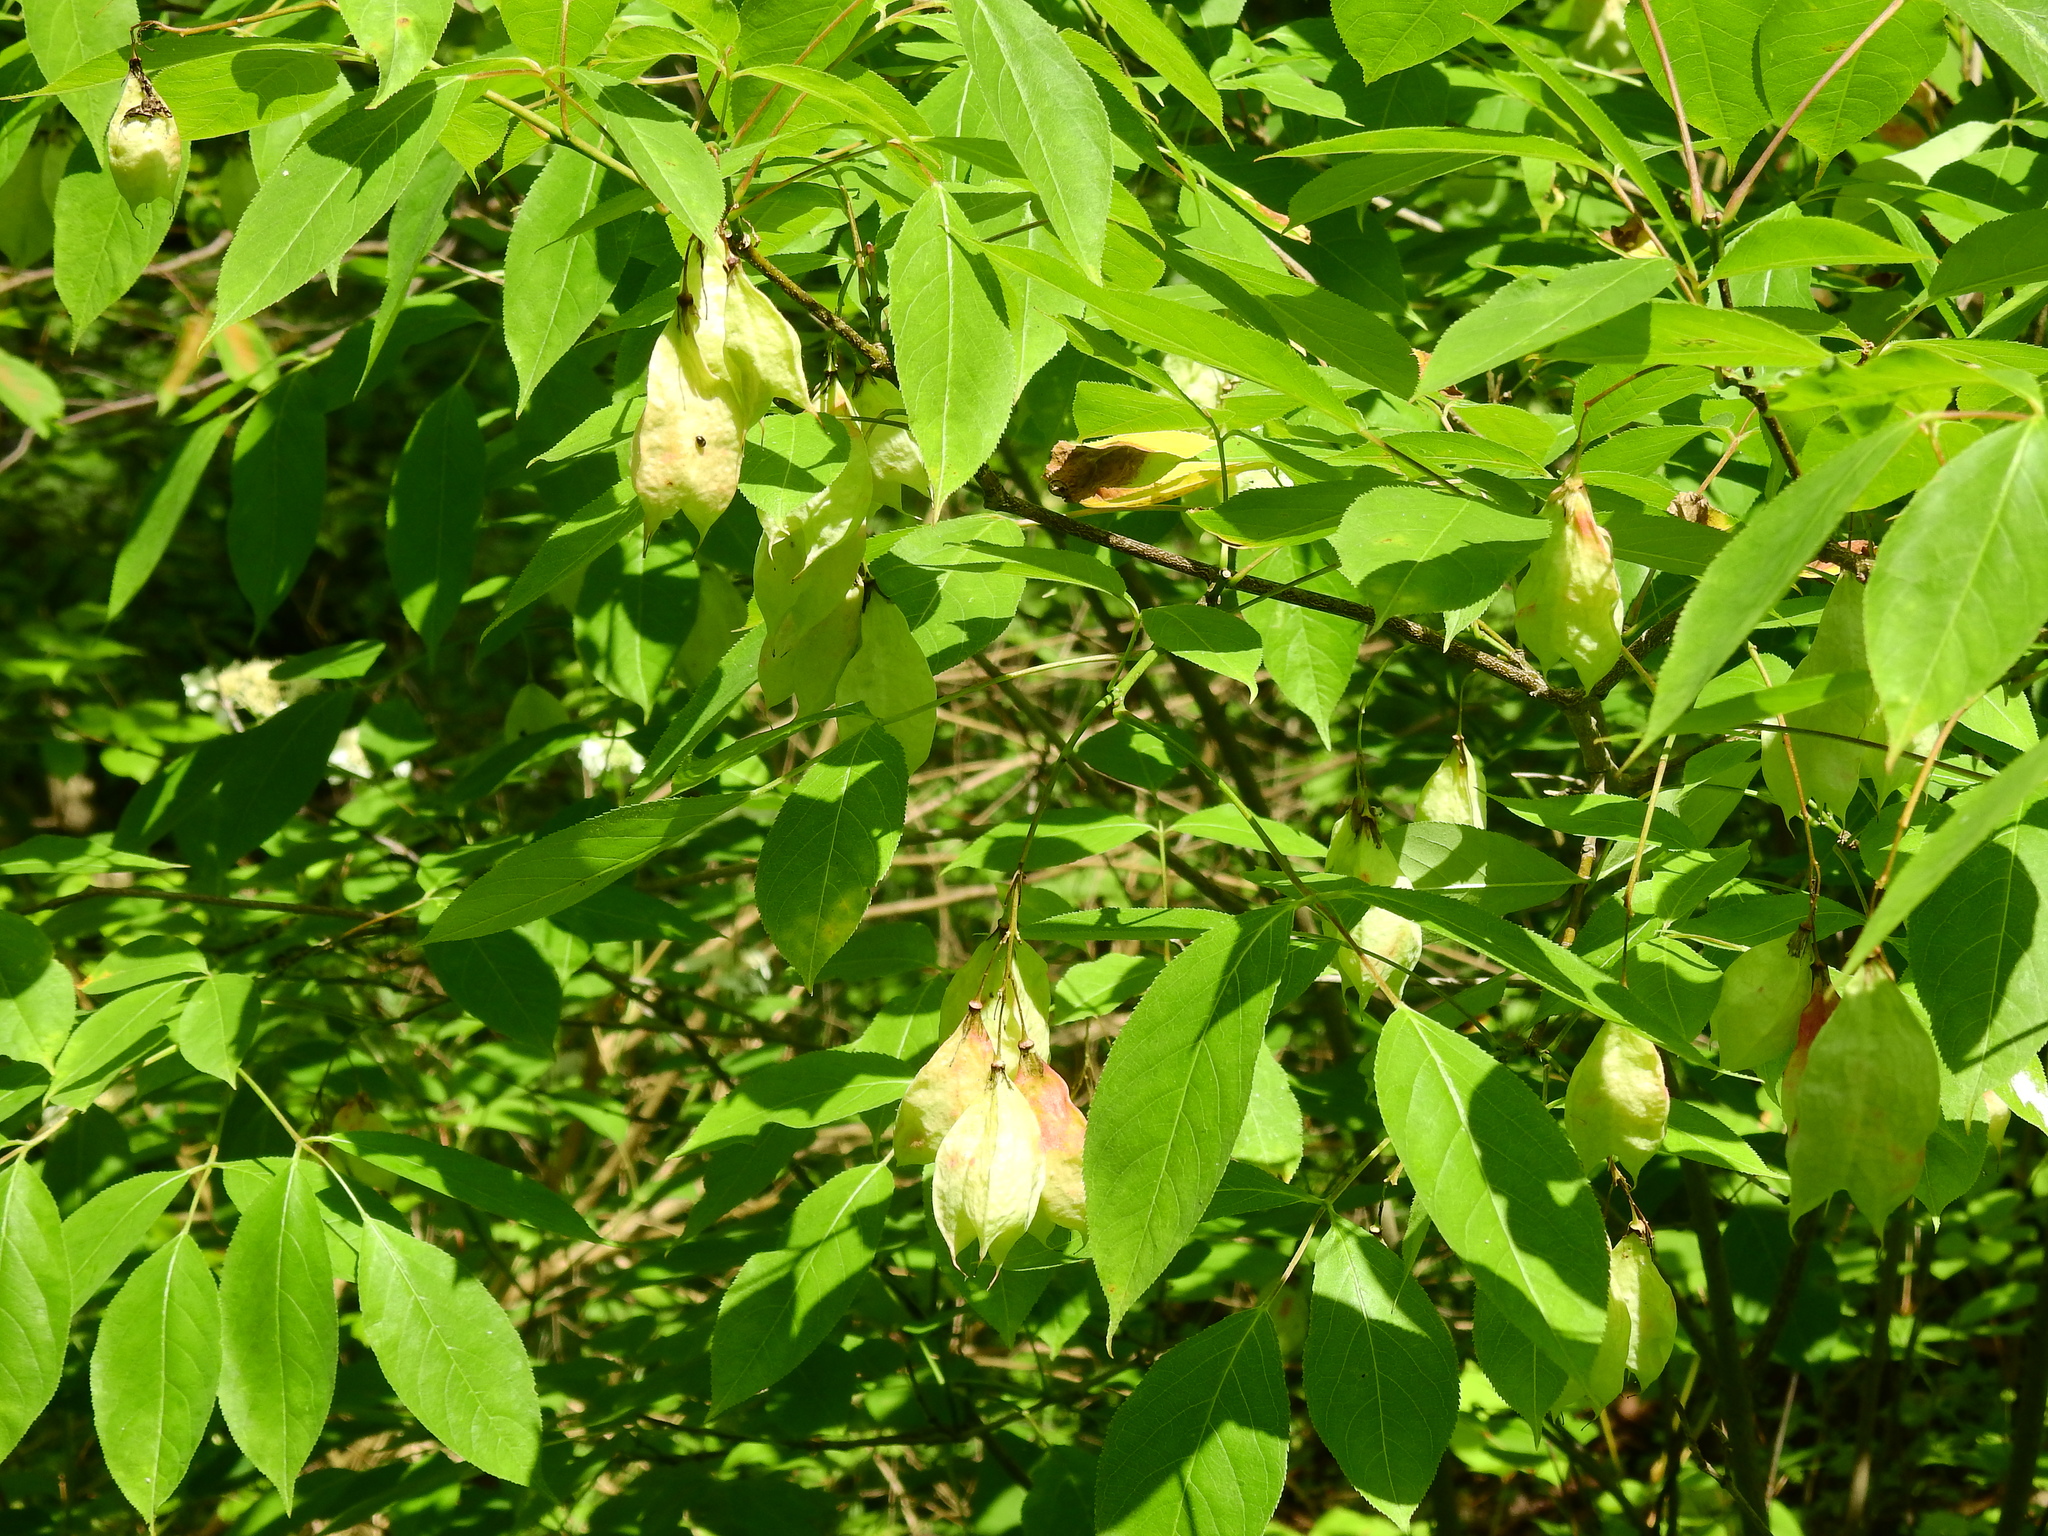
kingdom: Plantae
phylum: Tracheophyta
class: Magnoliopsida
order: Crossosomatales
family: Staphyleaceae
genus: Staphylea
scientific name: Staphylea trifolia
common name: American bladdernut
